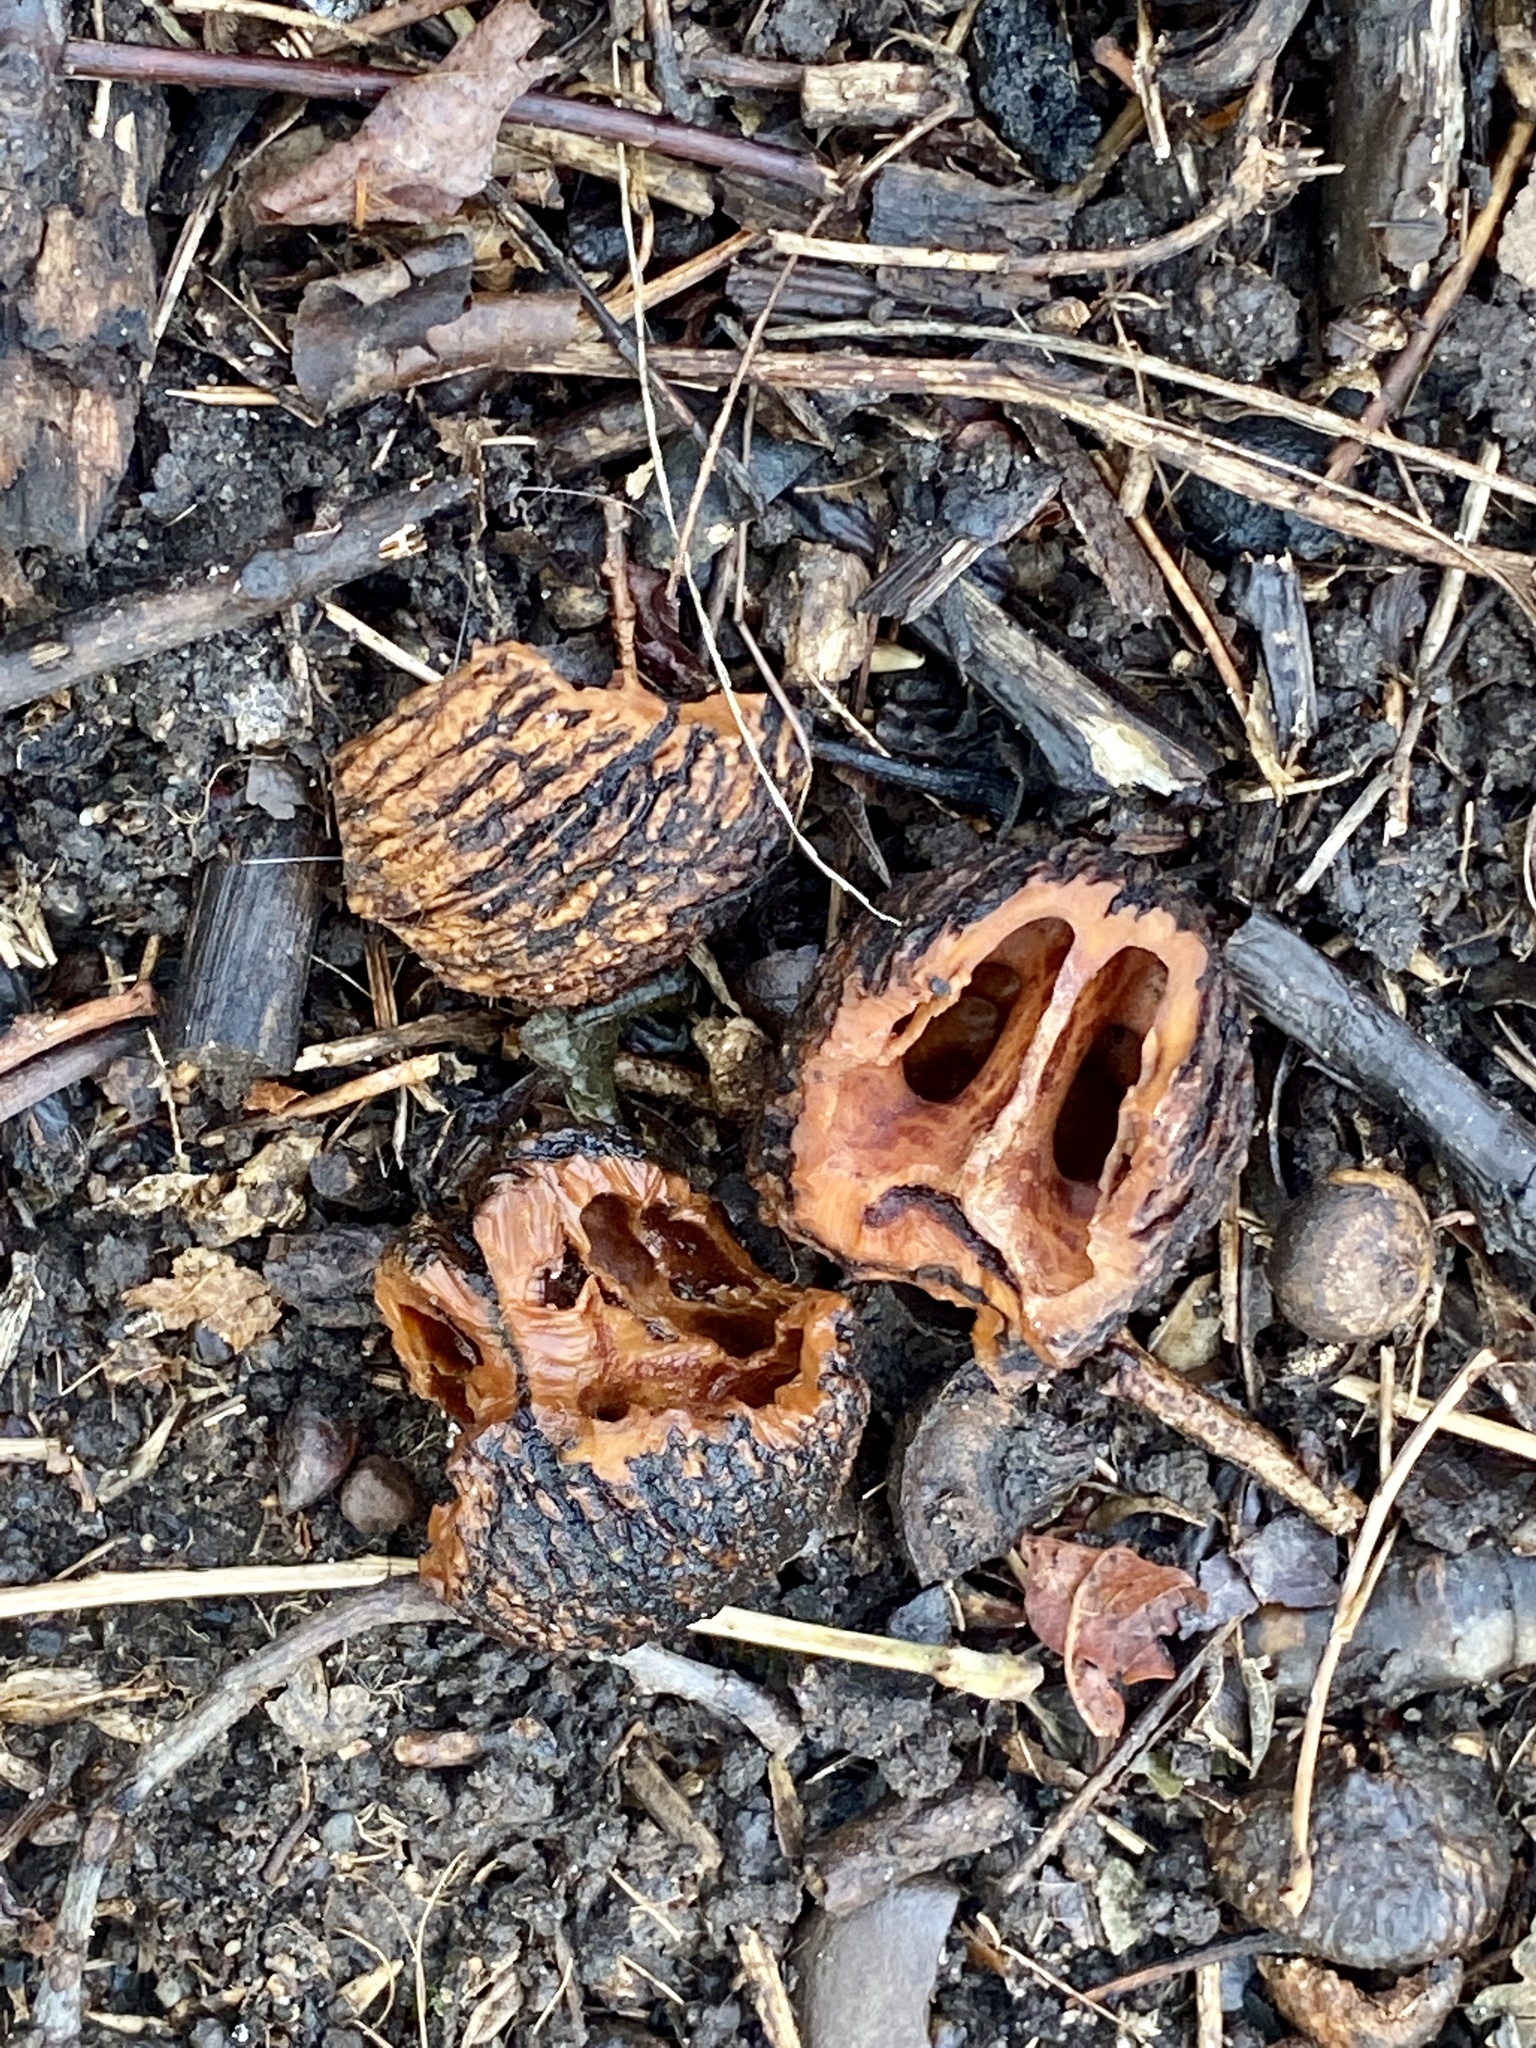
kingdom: Plantae
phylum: Tracheophyta
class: Magnoliopsida
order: Fagales
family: Juglandaceae
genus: Juglans
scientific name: Juglans nigra
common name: Black walnut
